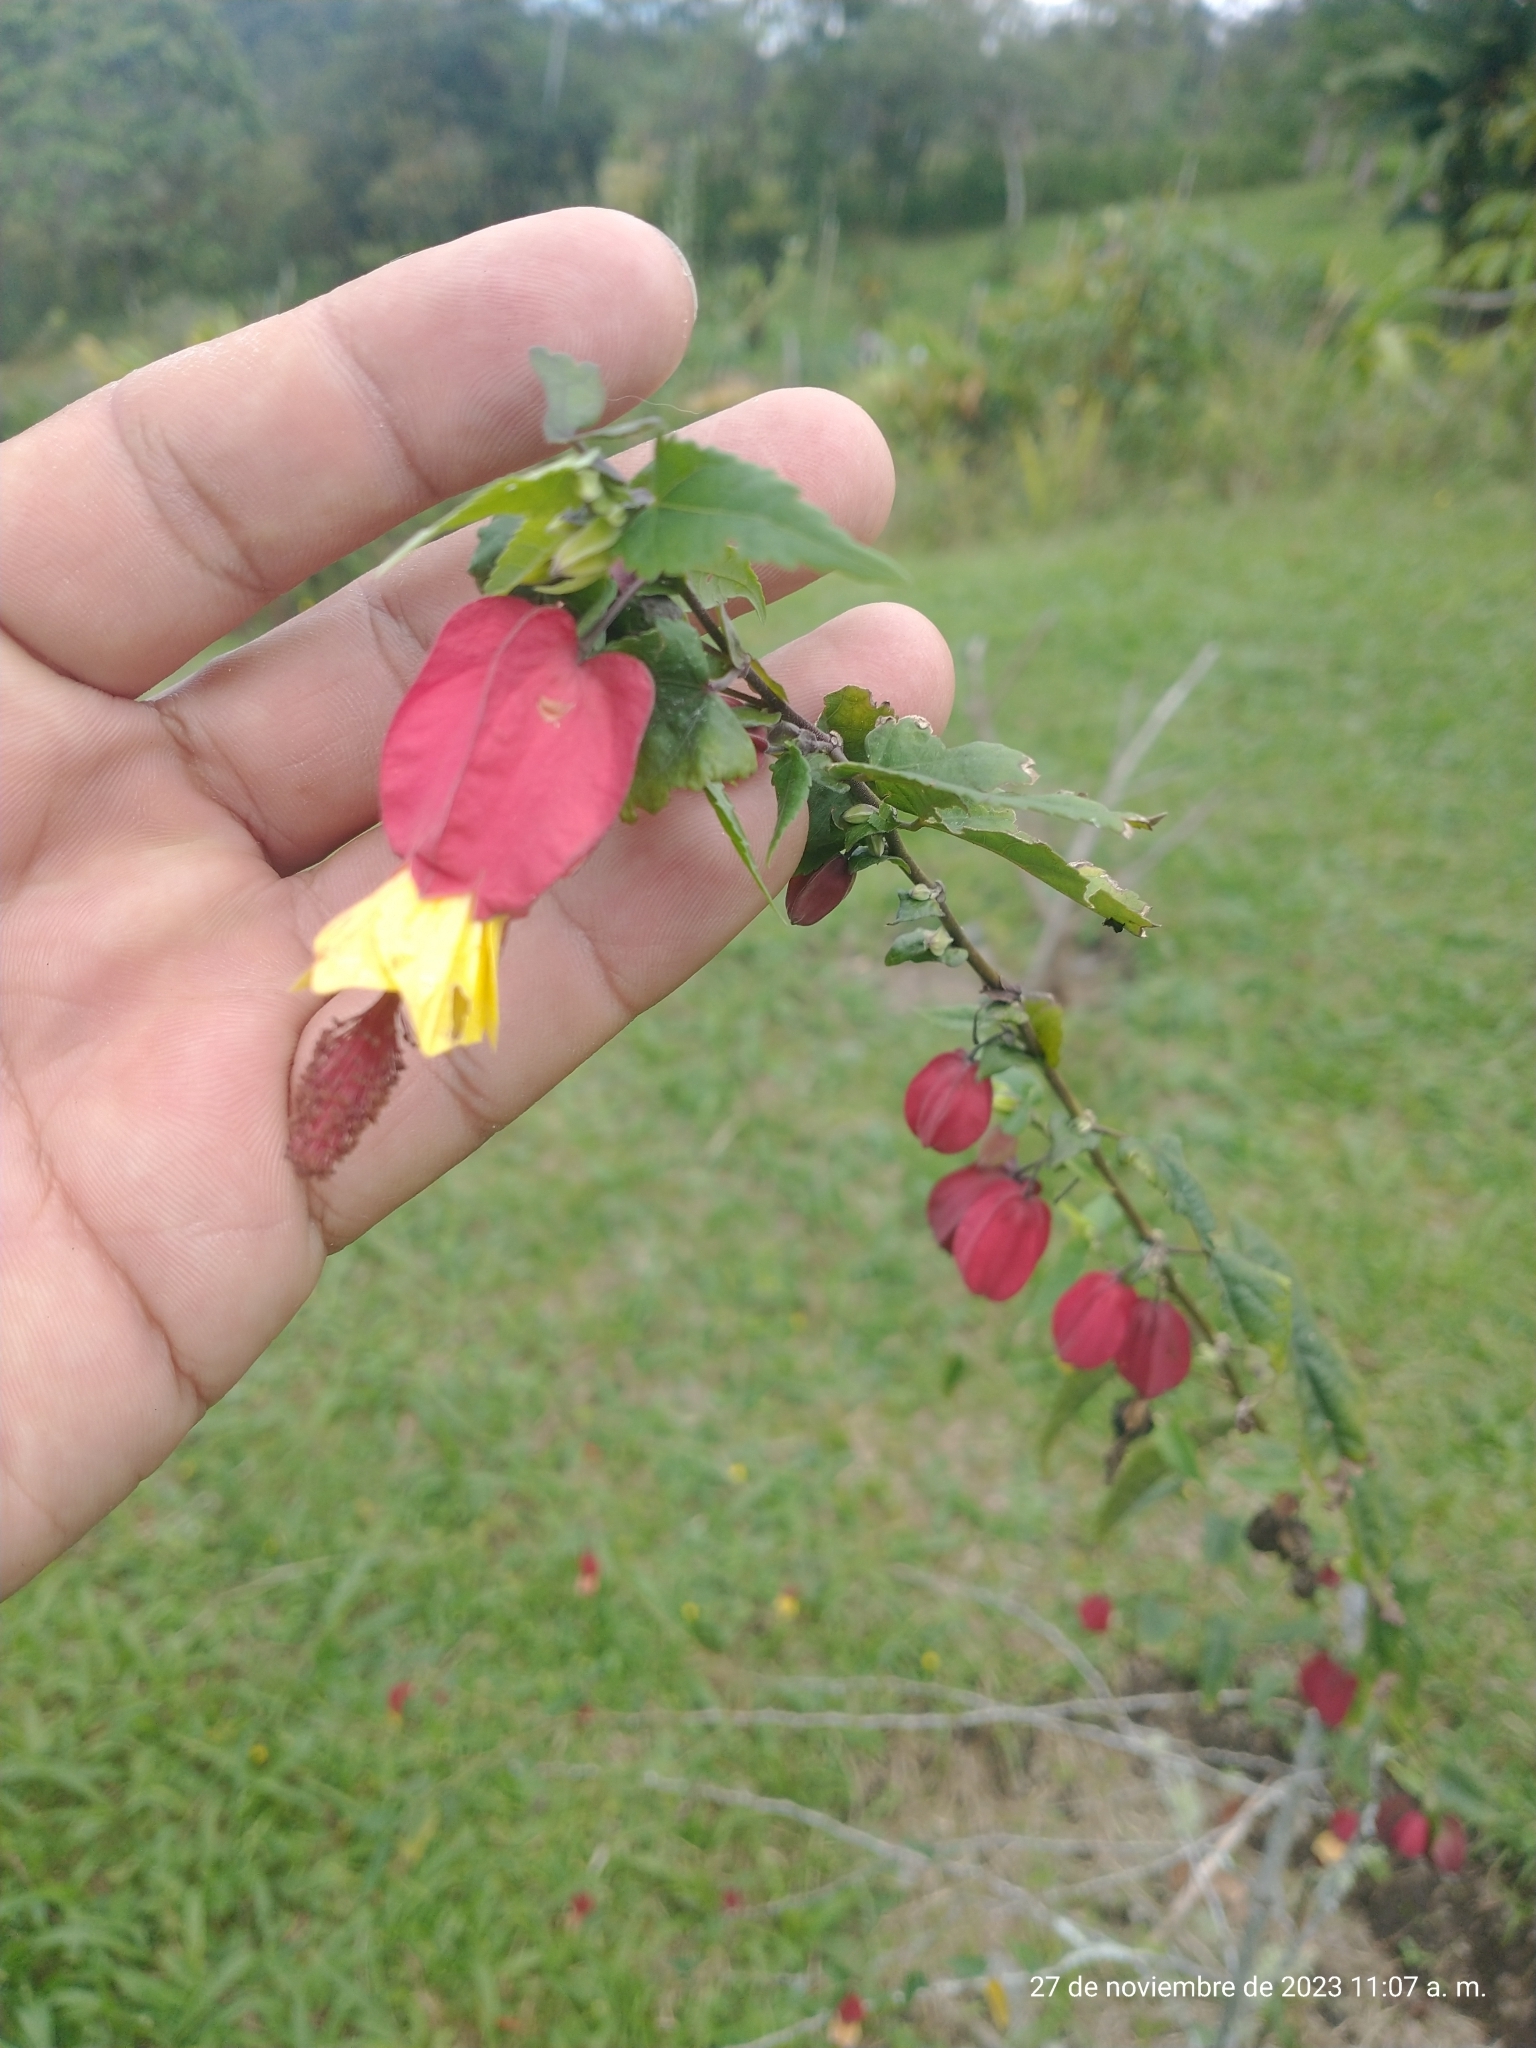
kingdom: Plantae
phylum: Tracheophyta
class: Magnoliopsida
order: Malvales
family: Malvaceae
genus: Callianthe
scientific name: Callianthe megapotamica
